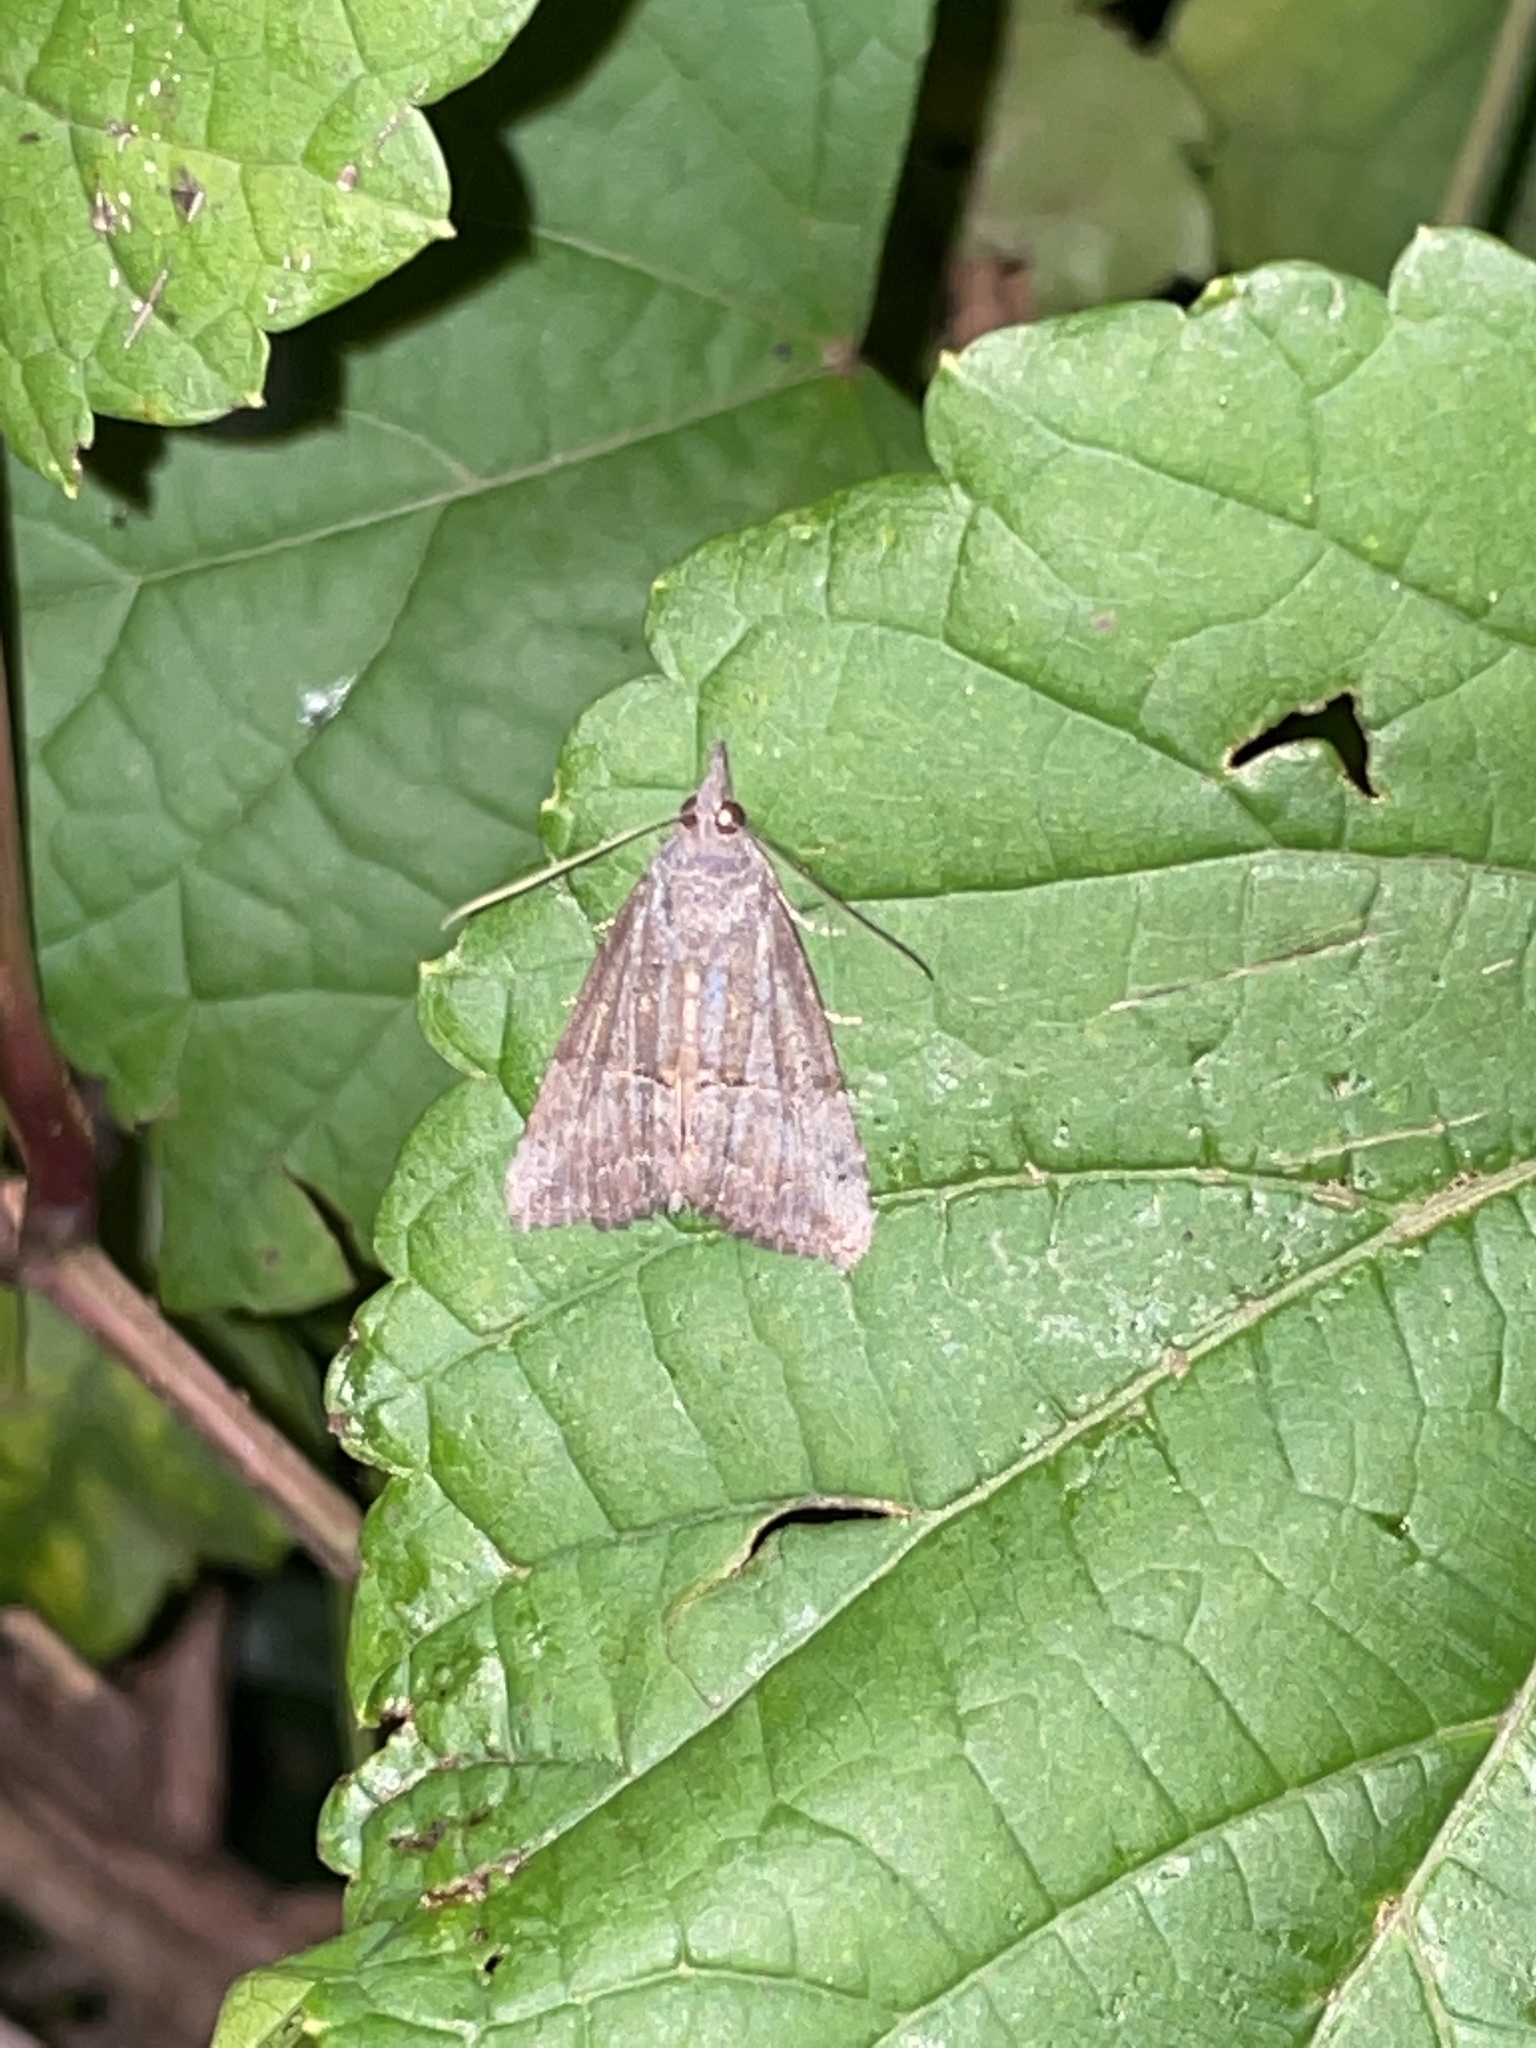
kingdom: Animalia
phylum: Arthropoda
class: Insecta
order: Lepidoptera
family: Erebidae
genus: Hypena
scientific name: Hypena scabra
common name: Green cloverworm
